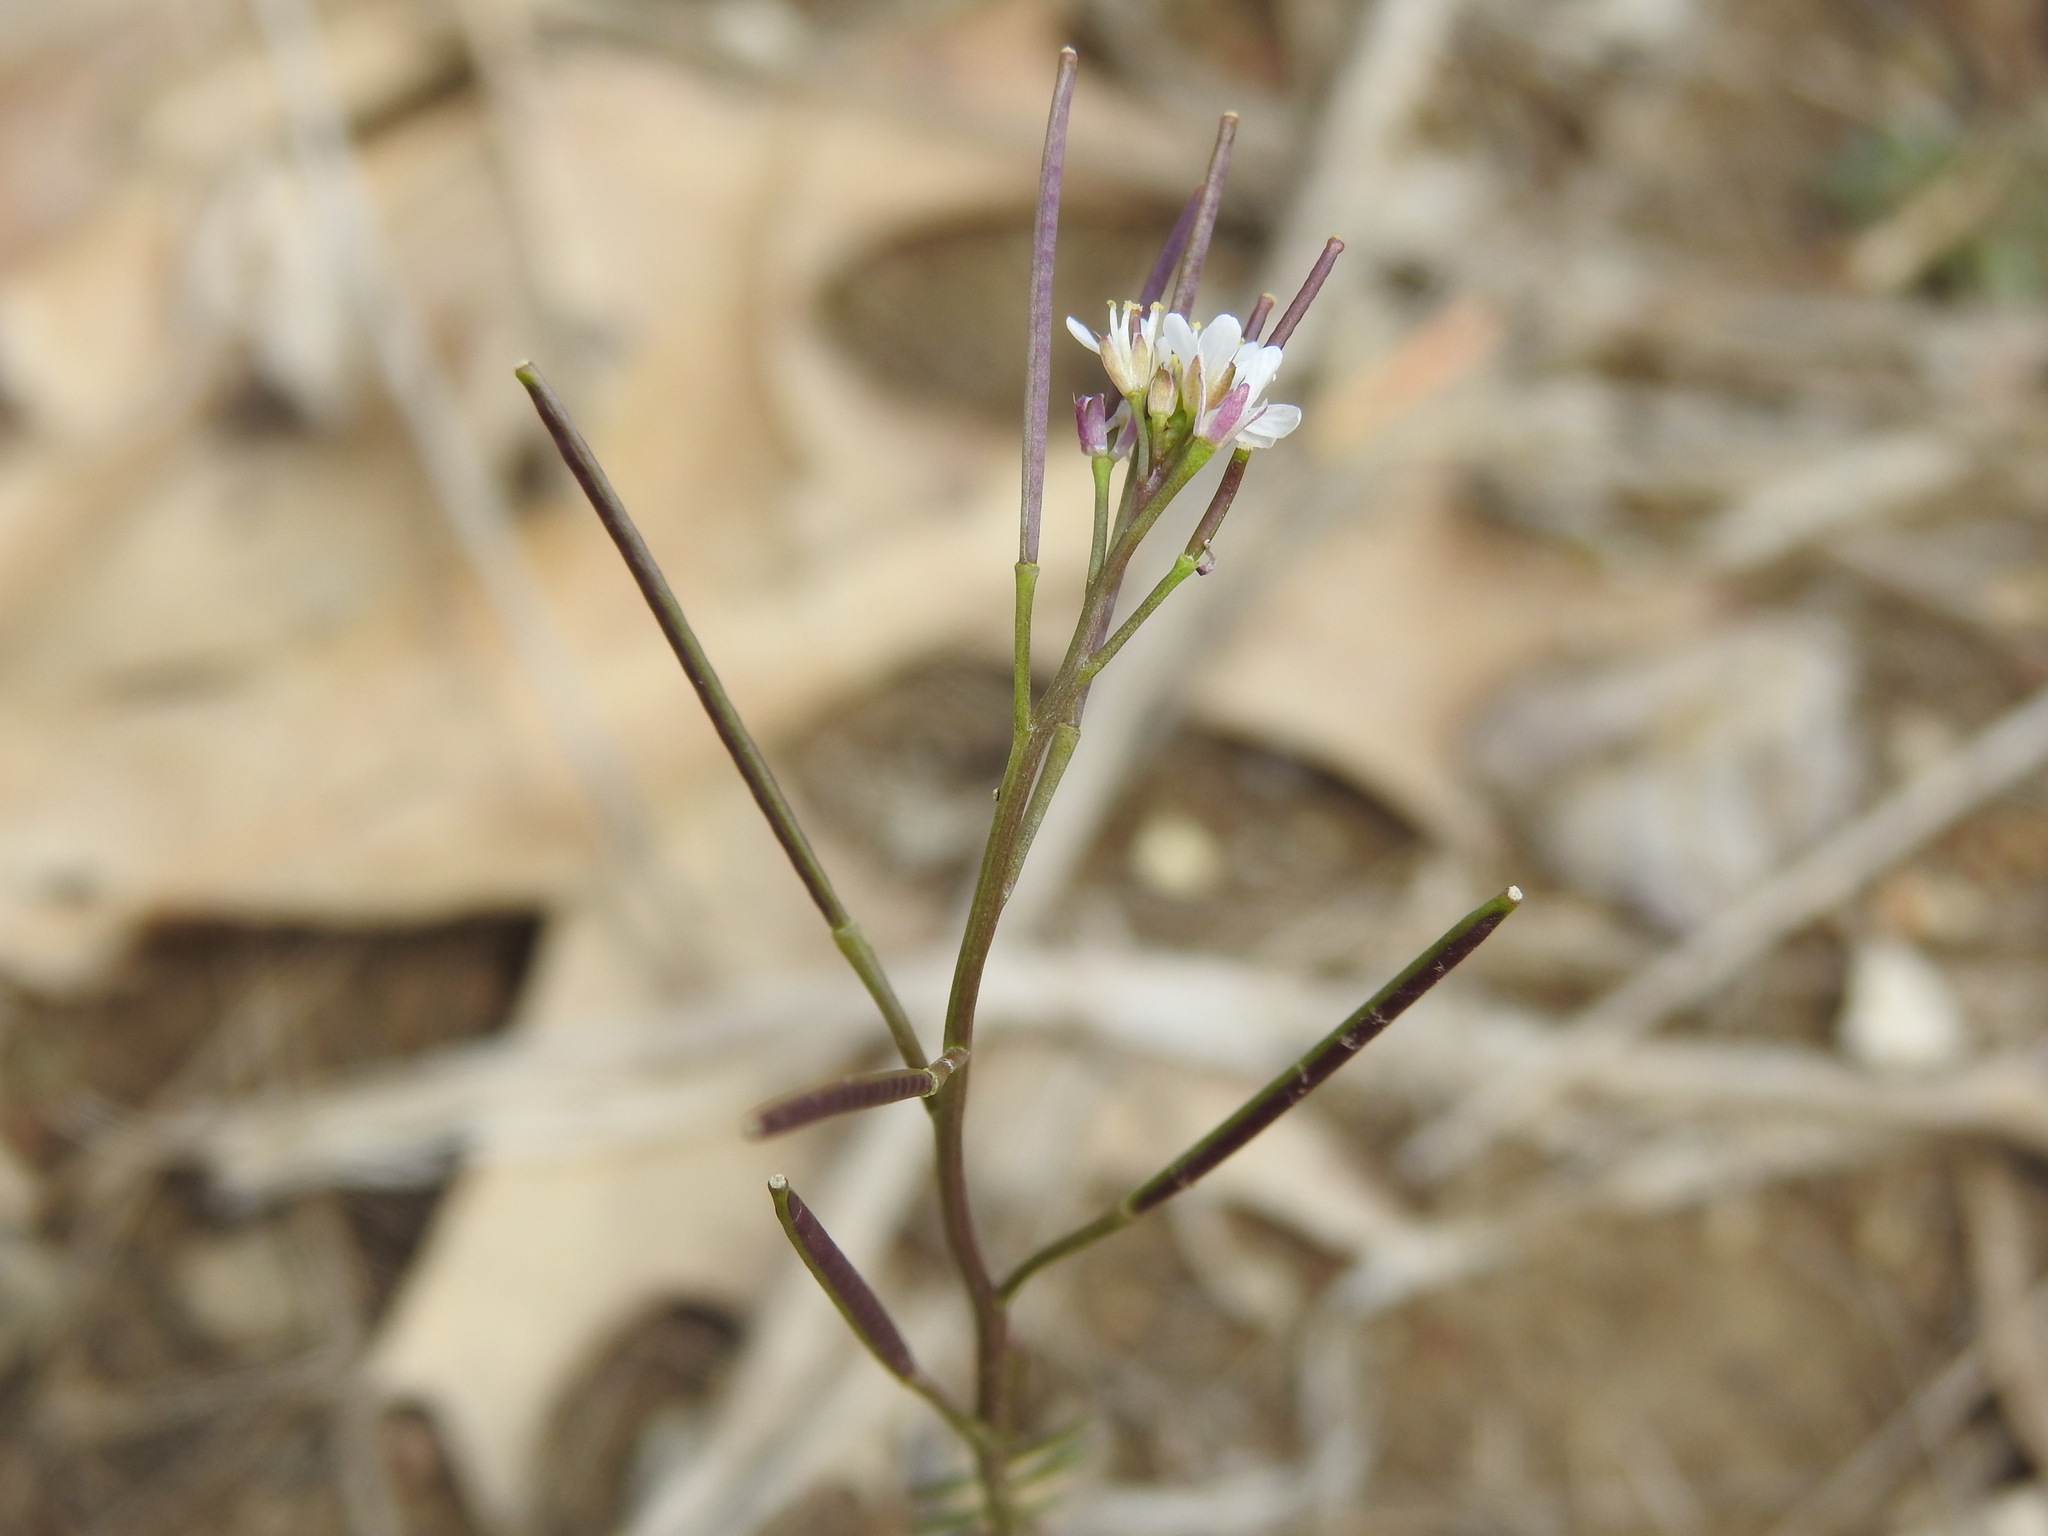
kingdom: Plantae
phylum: Tracheophyta
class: Magnoliopsida
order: Brassicales
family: Brassicaceae
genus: Cardamine
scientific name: Cardamine hirsuta
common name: Hairy bittercress
